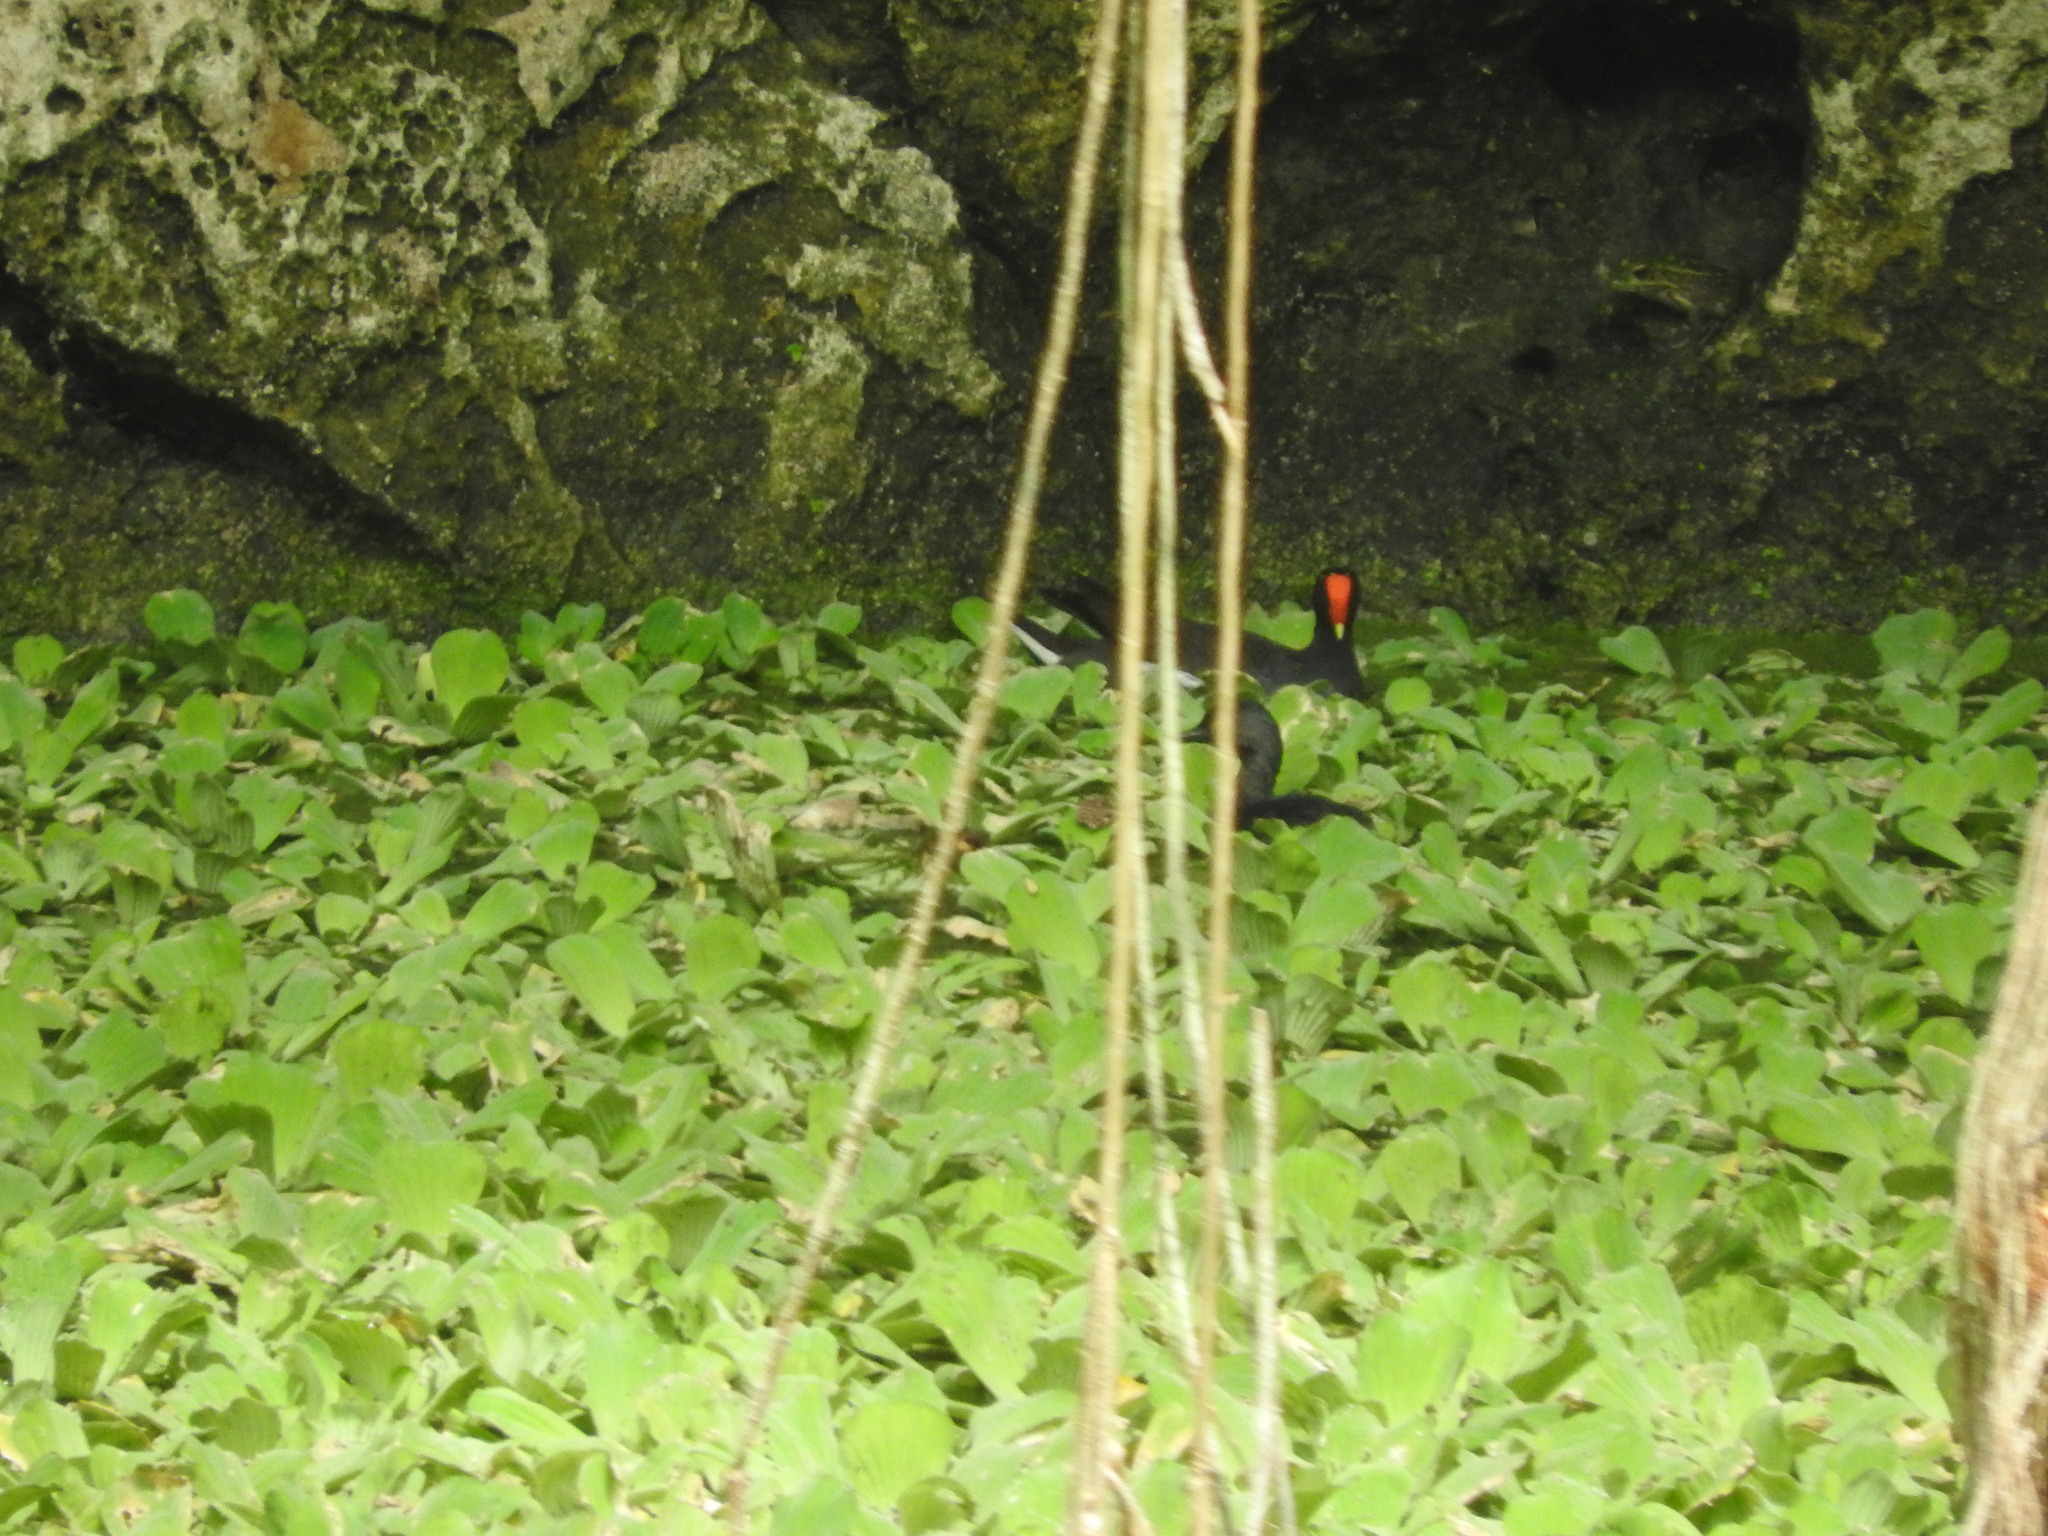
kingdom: Animalia
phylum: Chordata
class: Aves
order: Gruiformes
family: Rallidae
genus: Gallinula
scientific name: Gallinula chloropus
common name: Common moorhen
